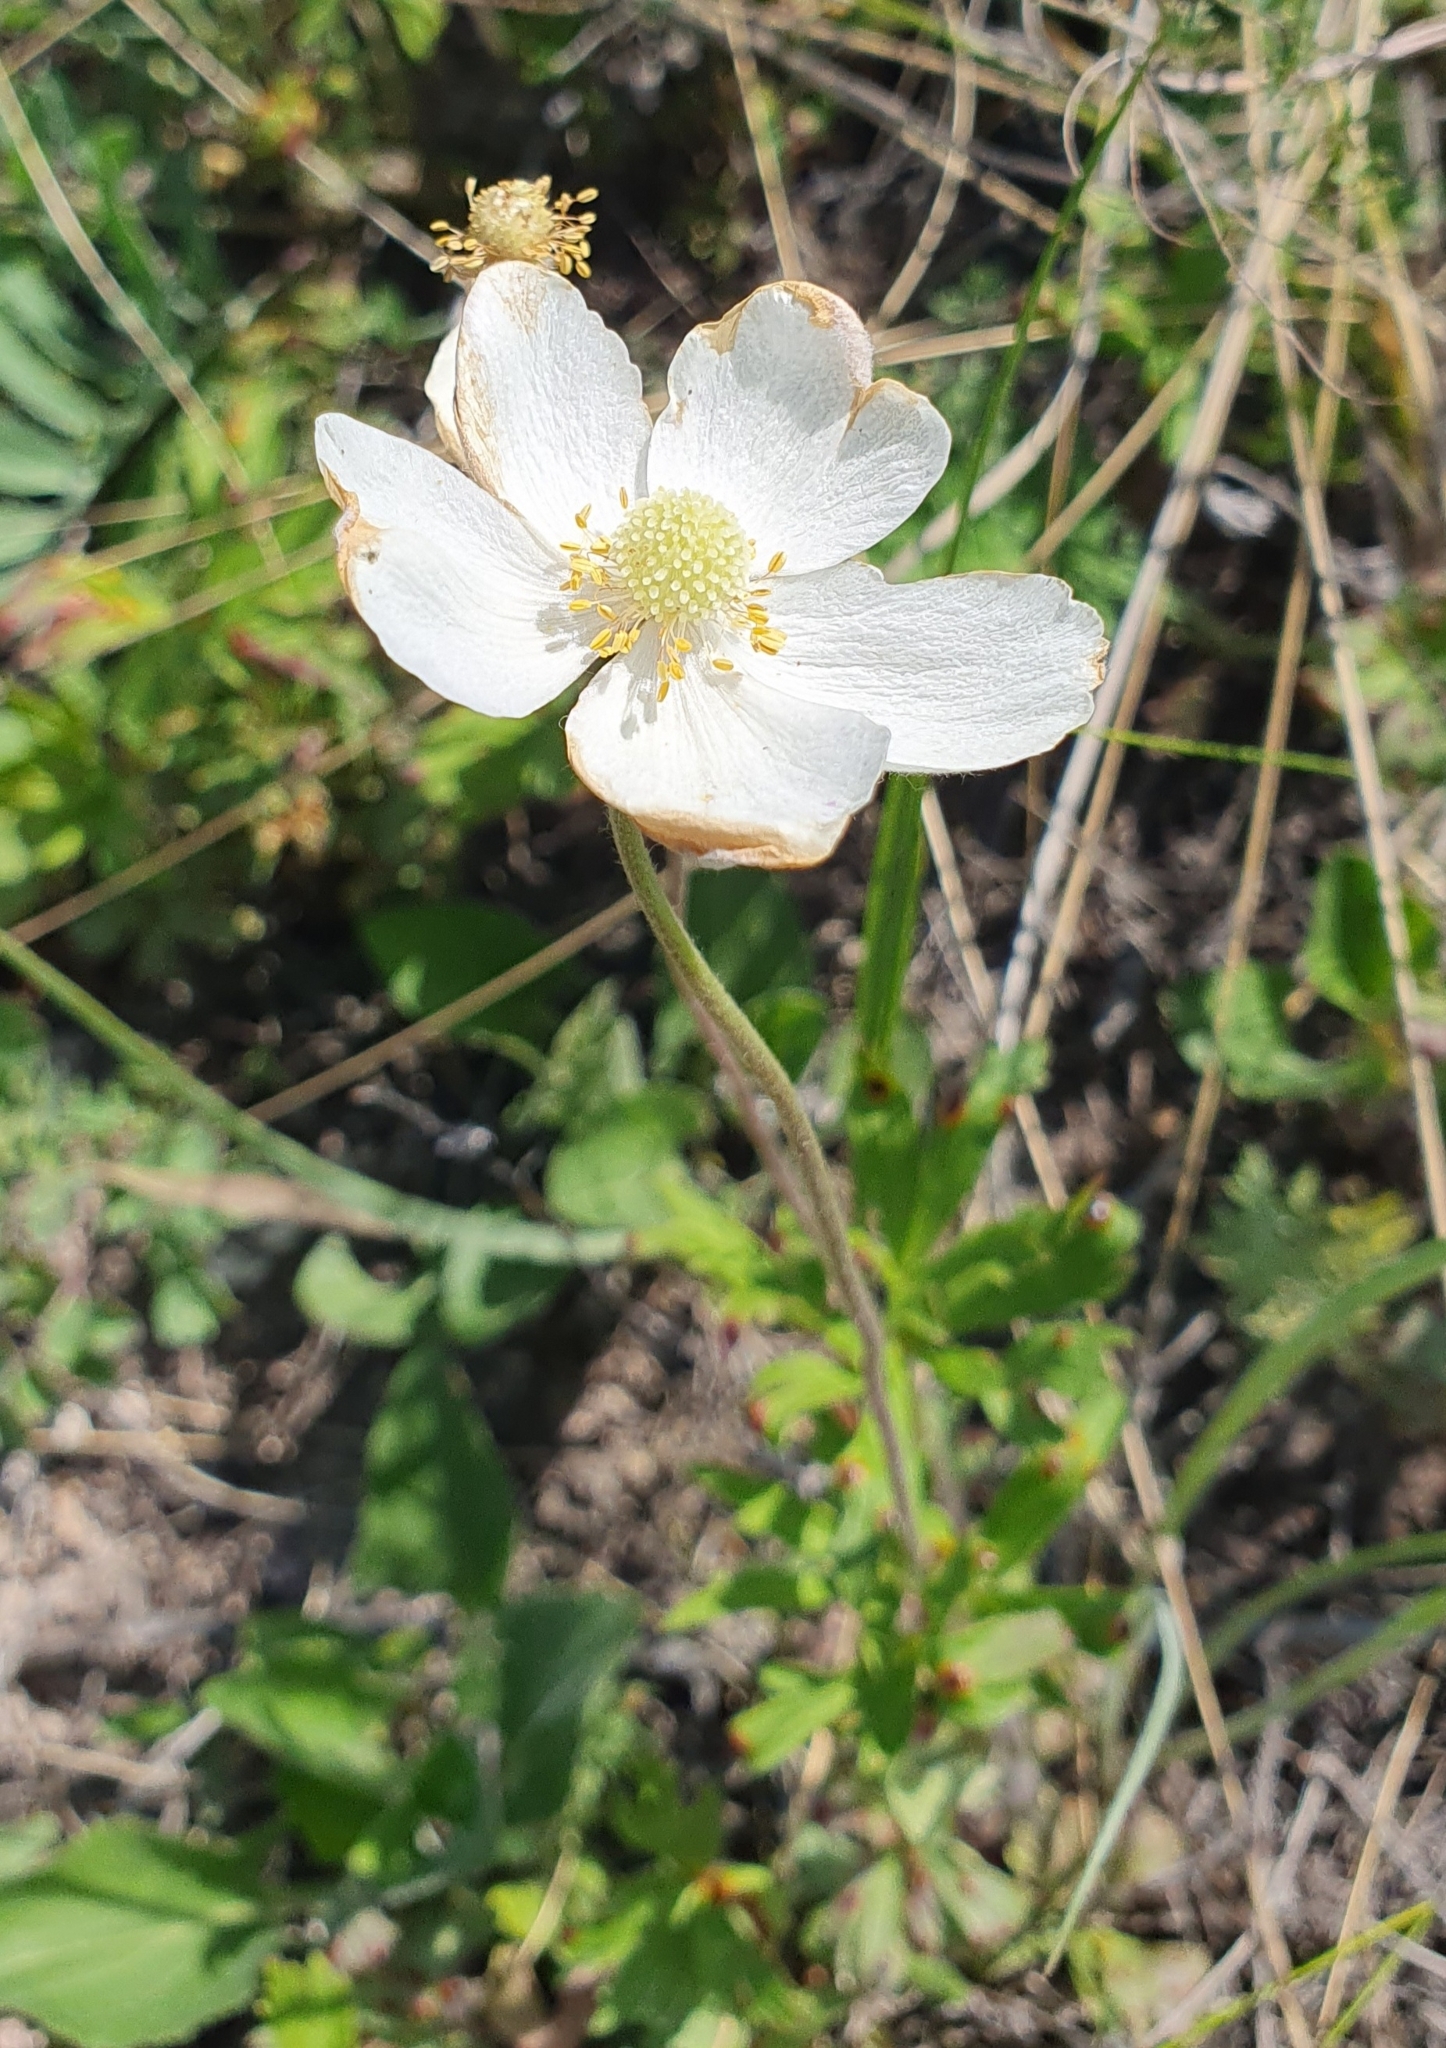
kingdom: Plantae
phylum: Tracheophyta
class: Magnoliopsida
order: Ranunculales
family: Ranunculaceae
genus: Anemone
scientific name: Anemone sylvestris
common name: Snowdrop anemone
